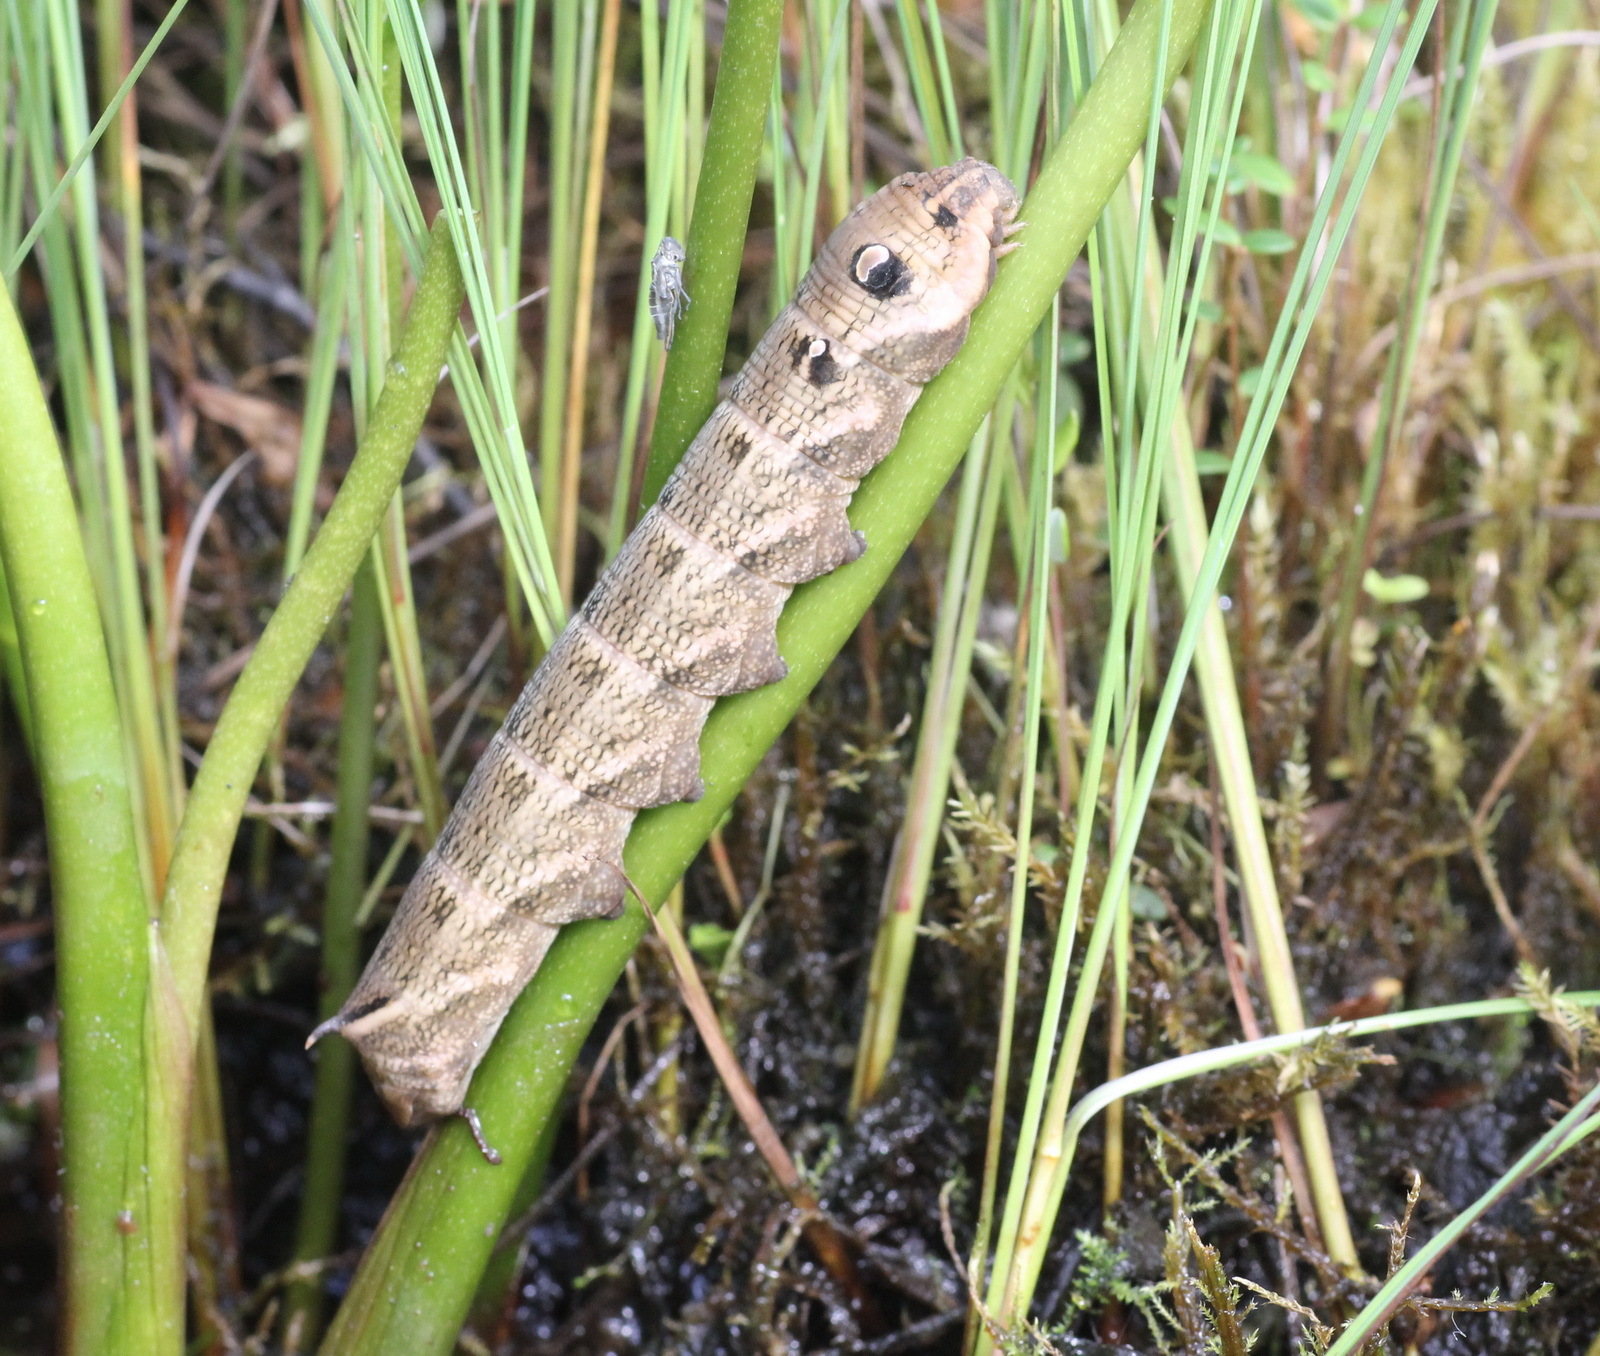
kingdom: Animalia
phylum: Arthropoda
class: Insecta
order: Lepidoptera
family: Sphingidae
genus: Deilephila
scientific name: Deilephila elpenor
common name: Elephant hawk-moth
